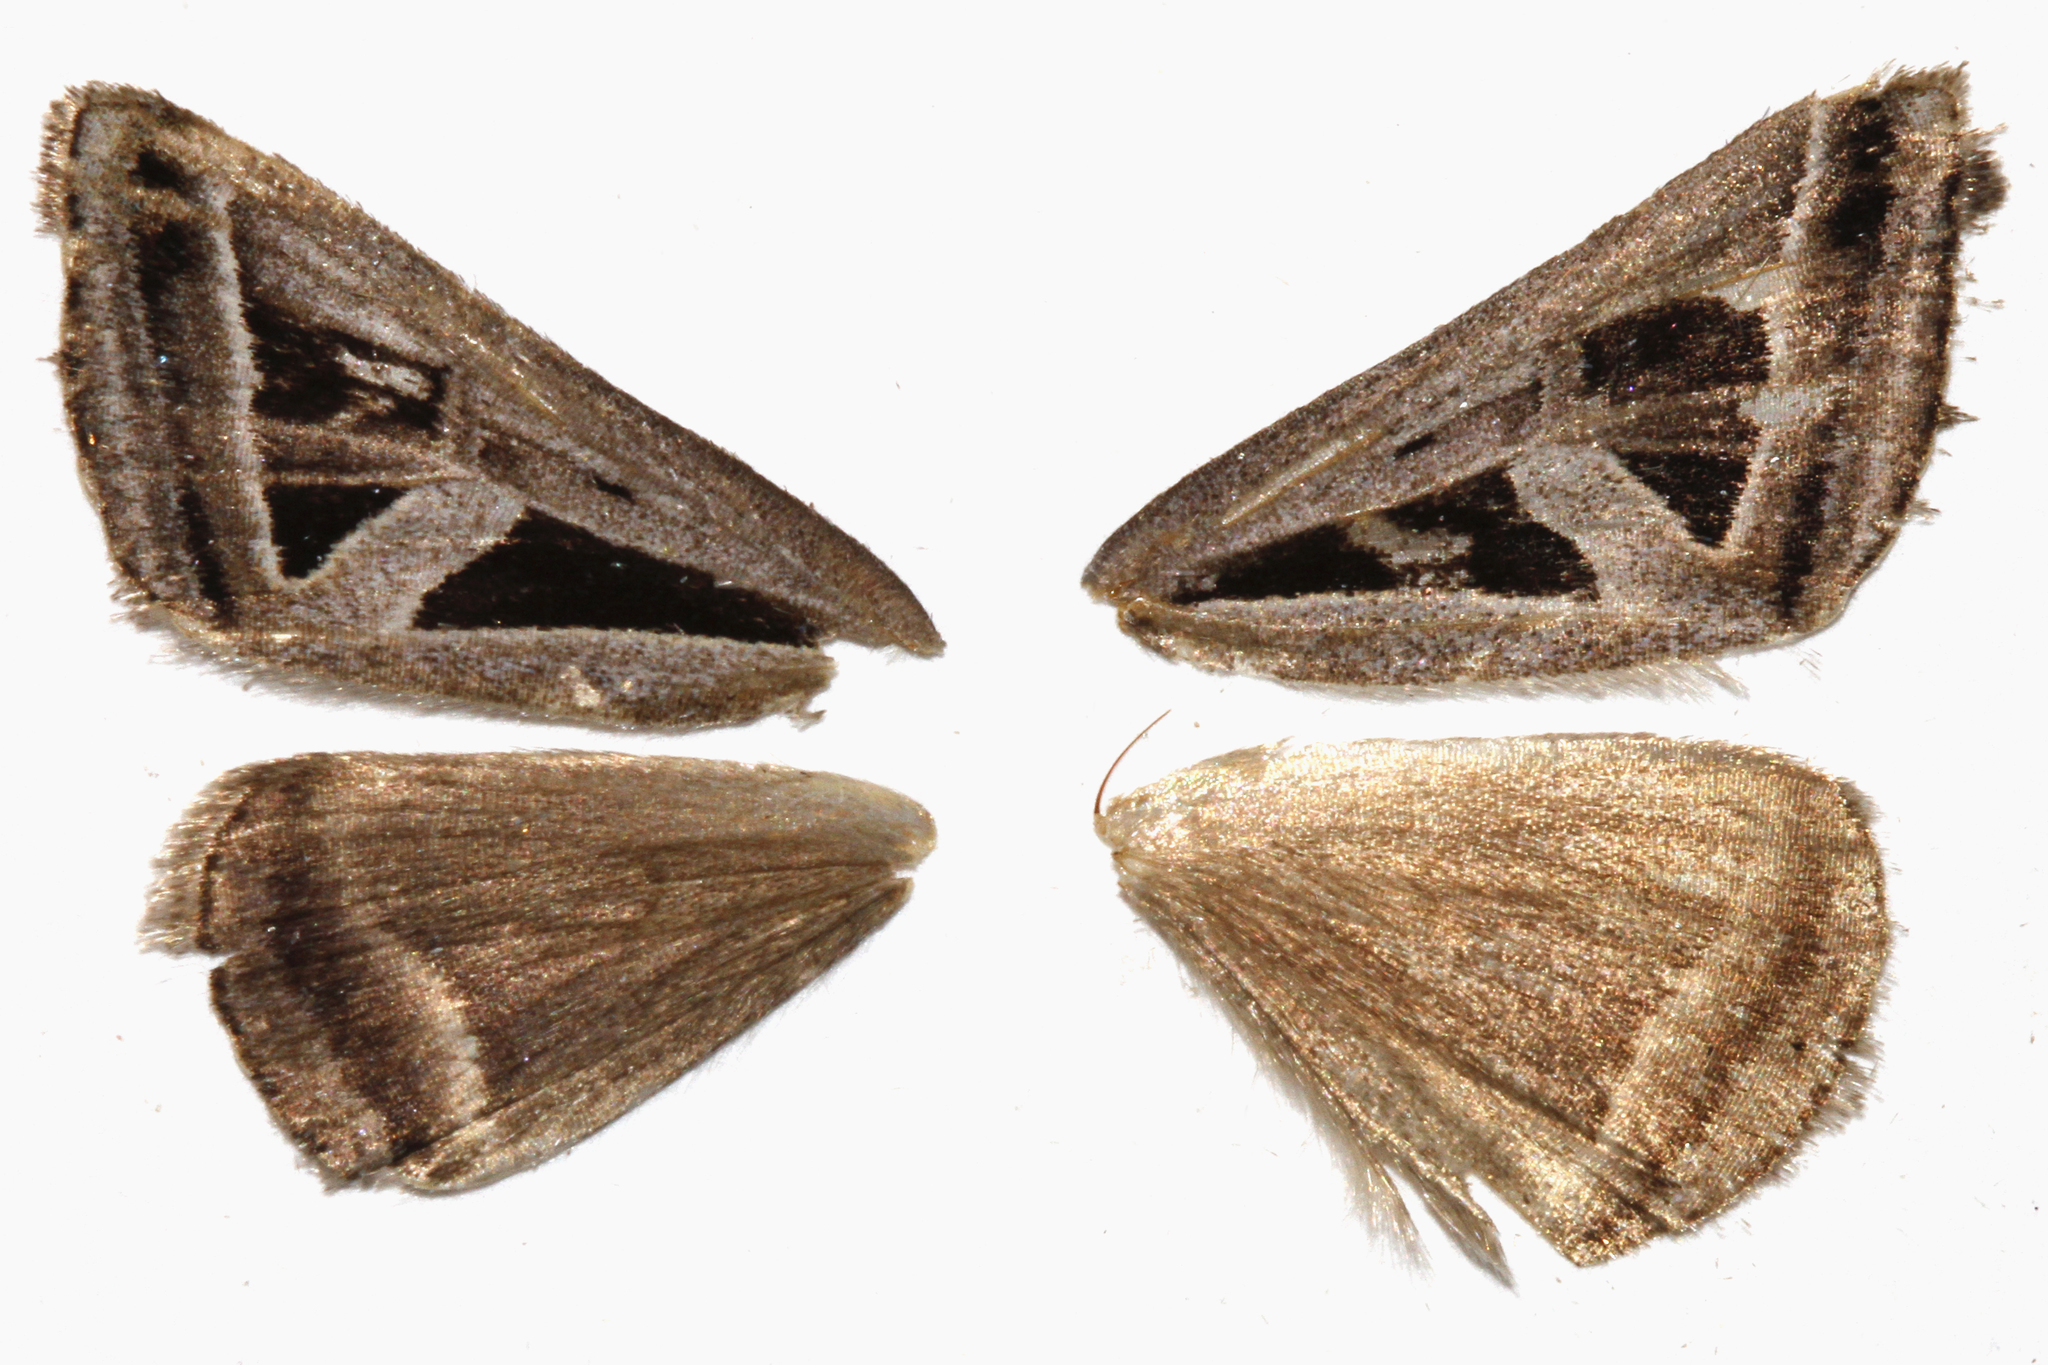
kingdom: Animalia
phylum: Arthropoda
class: Insecta
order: Lepidoptera
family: Erebidae
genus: Callistege
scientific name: Callistege triangula
